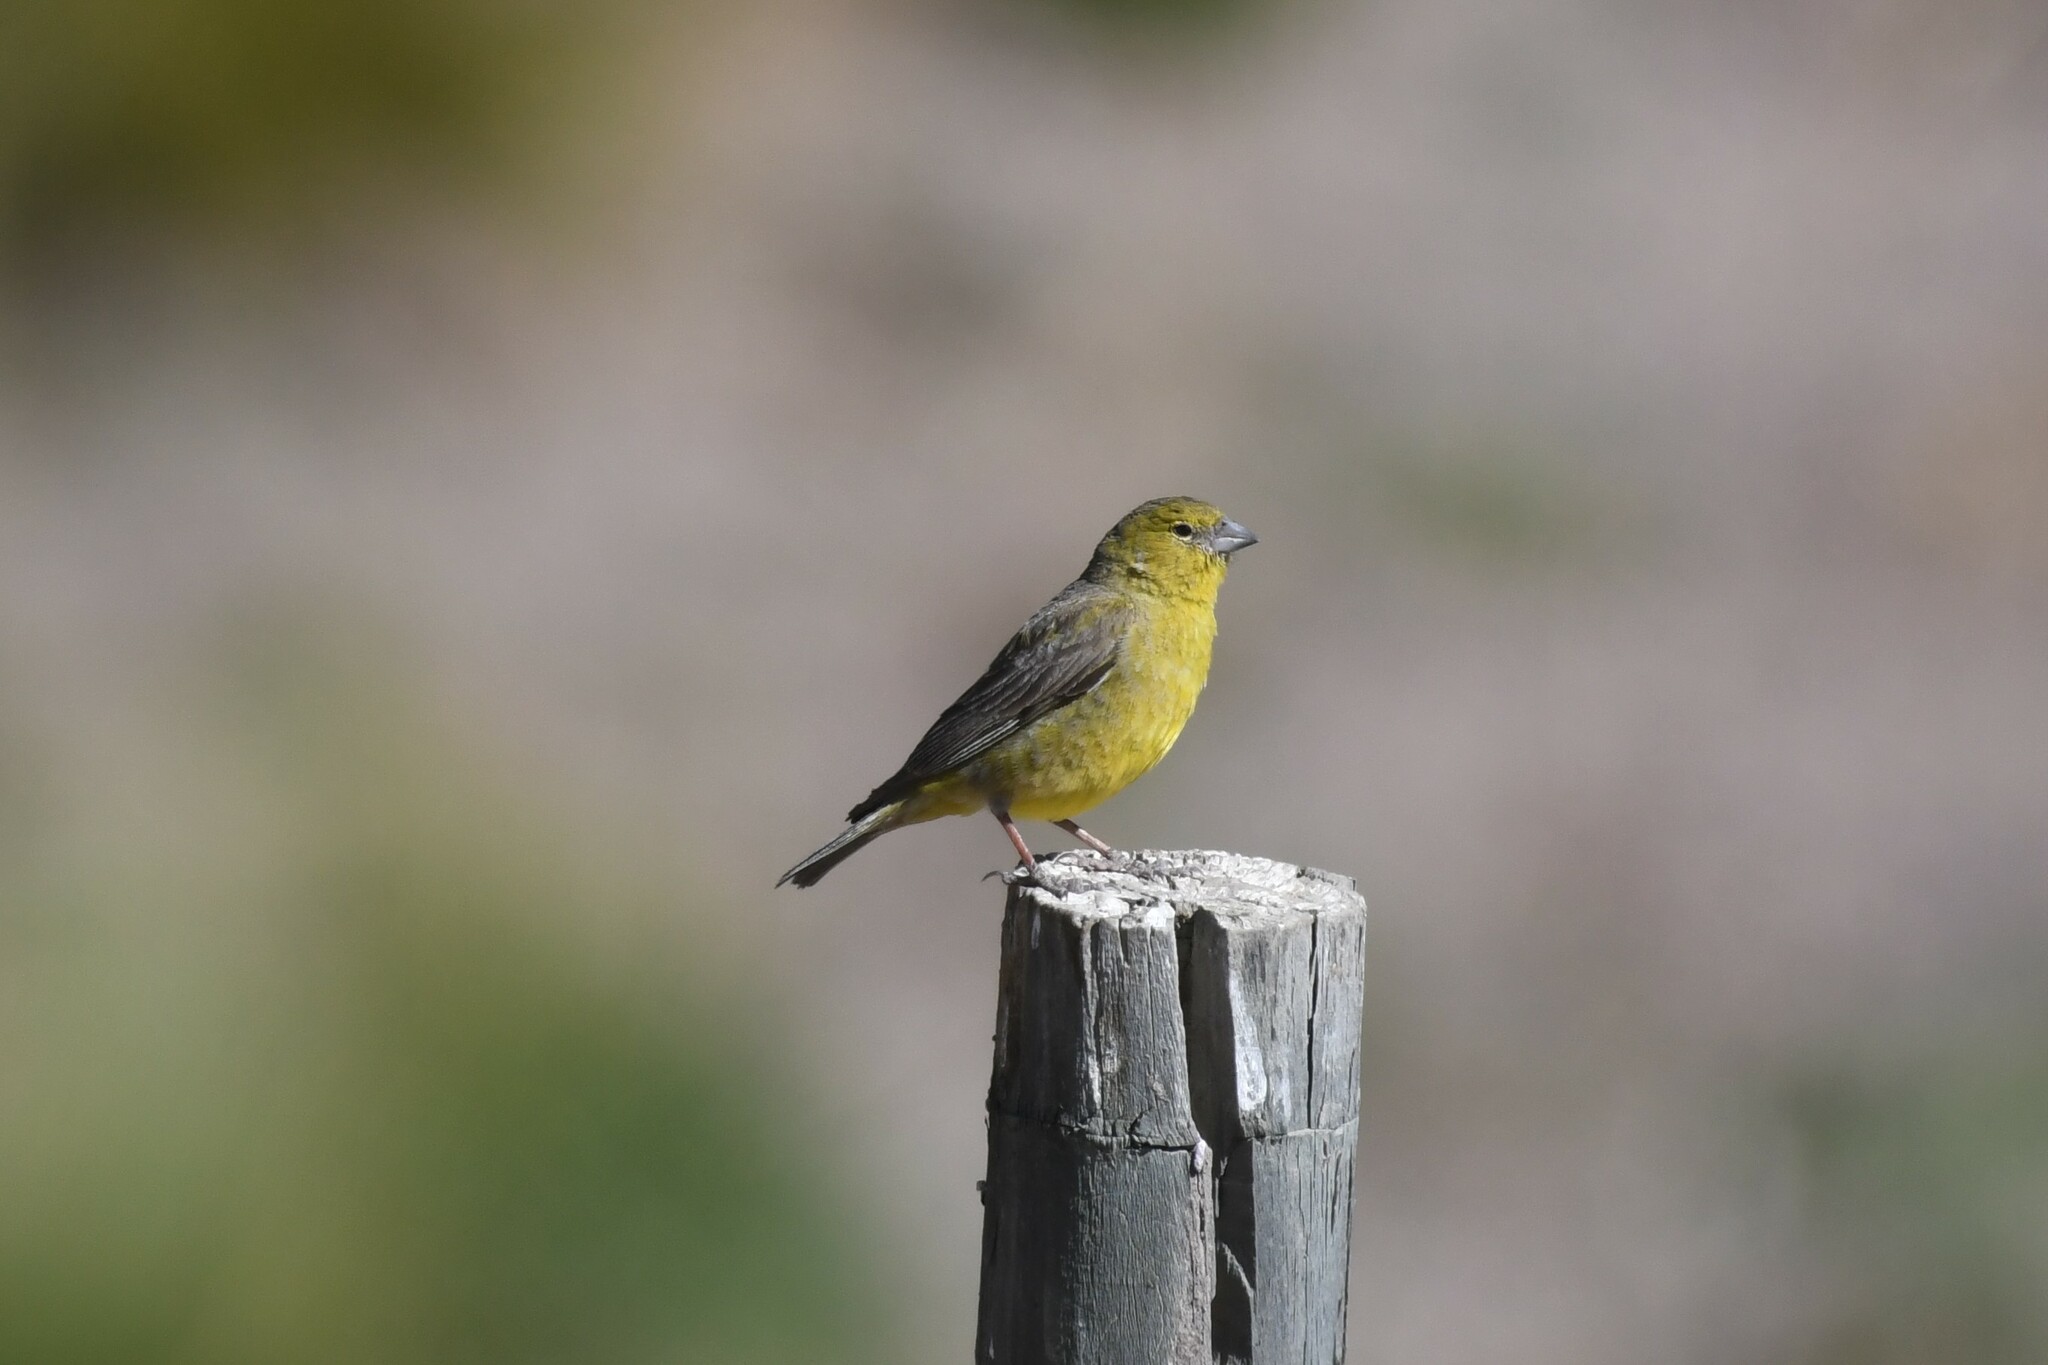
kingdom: Animalia
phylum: Chordata
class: Aves
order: Passeriformes
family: Thraupidae
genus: Sicalis
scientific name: Sicalis olivascens
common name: Greenish yellow finch
